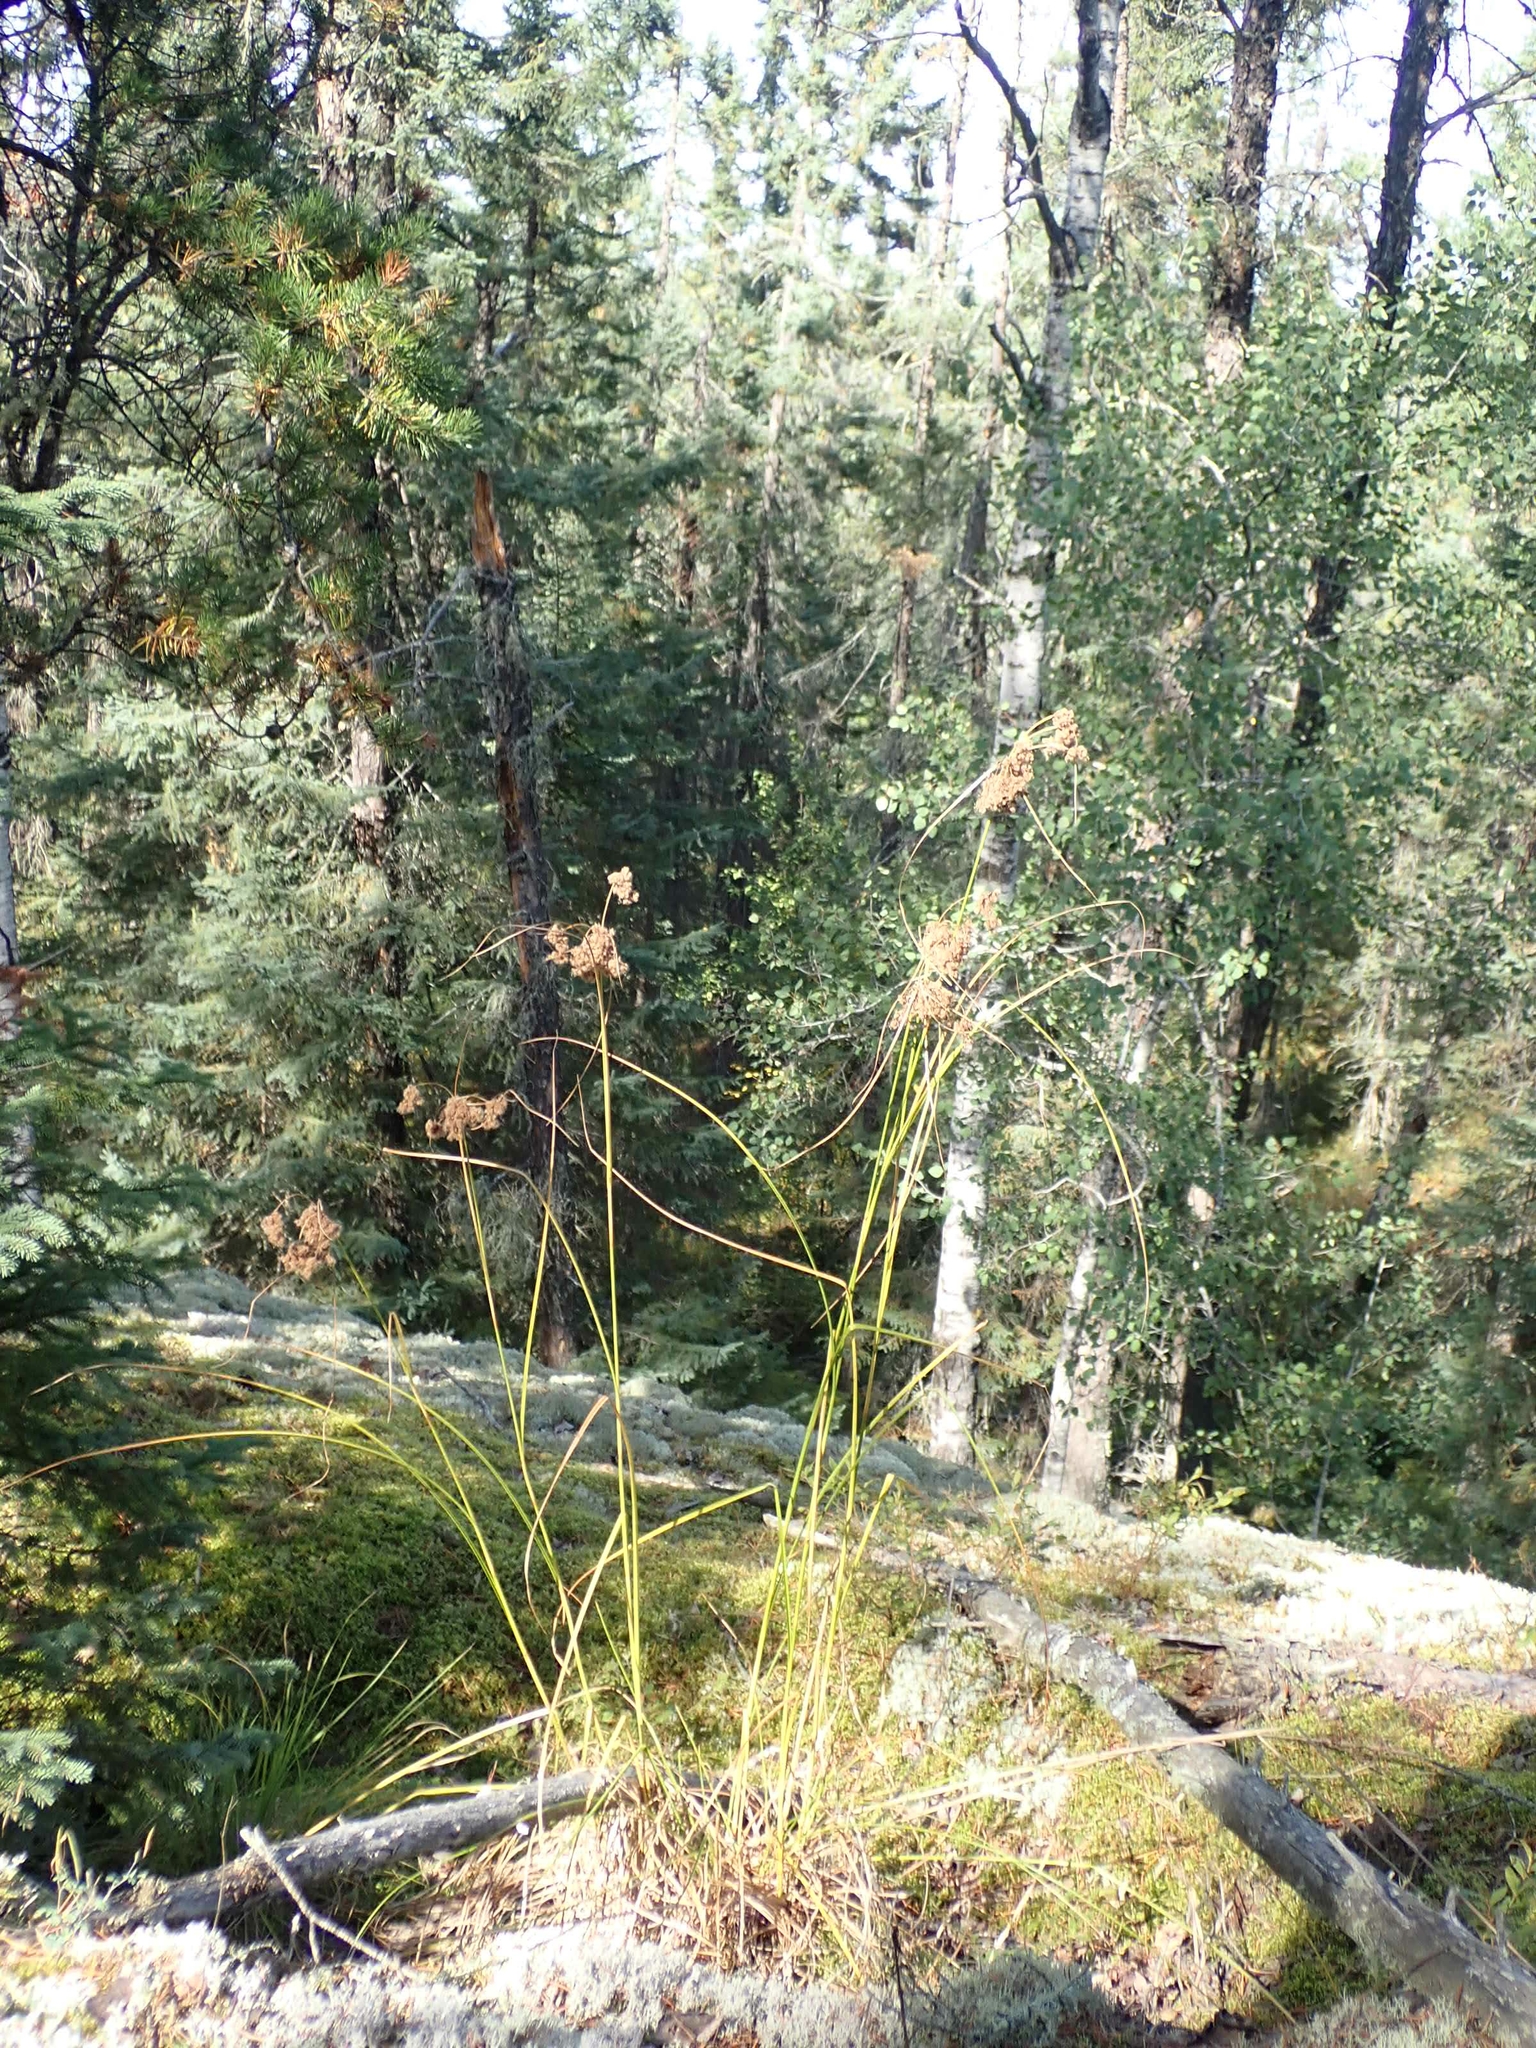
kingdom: Plantae
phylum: Tracheophyta
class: Liliopsida
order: Poales
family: Cyperaceae
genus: Scirpus
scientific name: Scirpus cyperinus
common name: Black-sheathed bulrush
